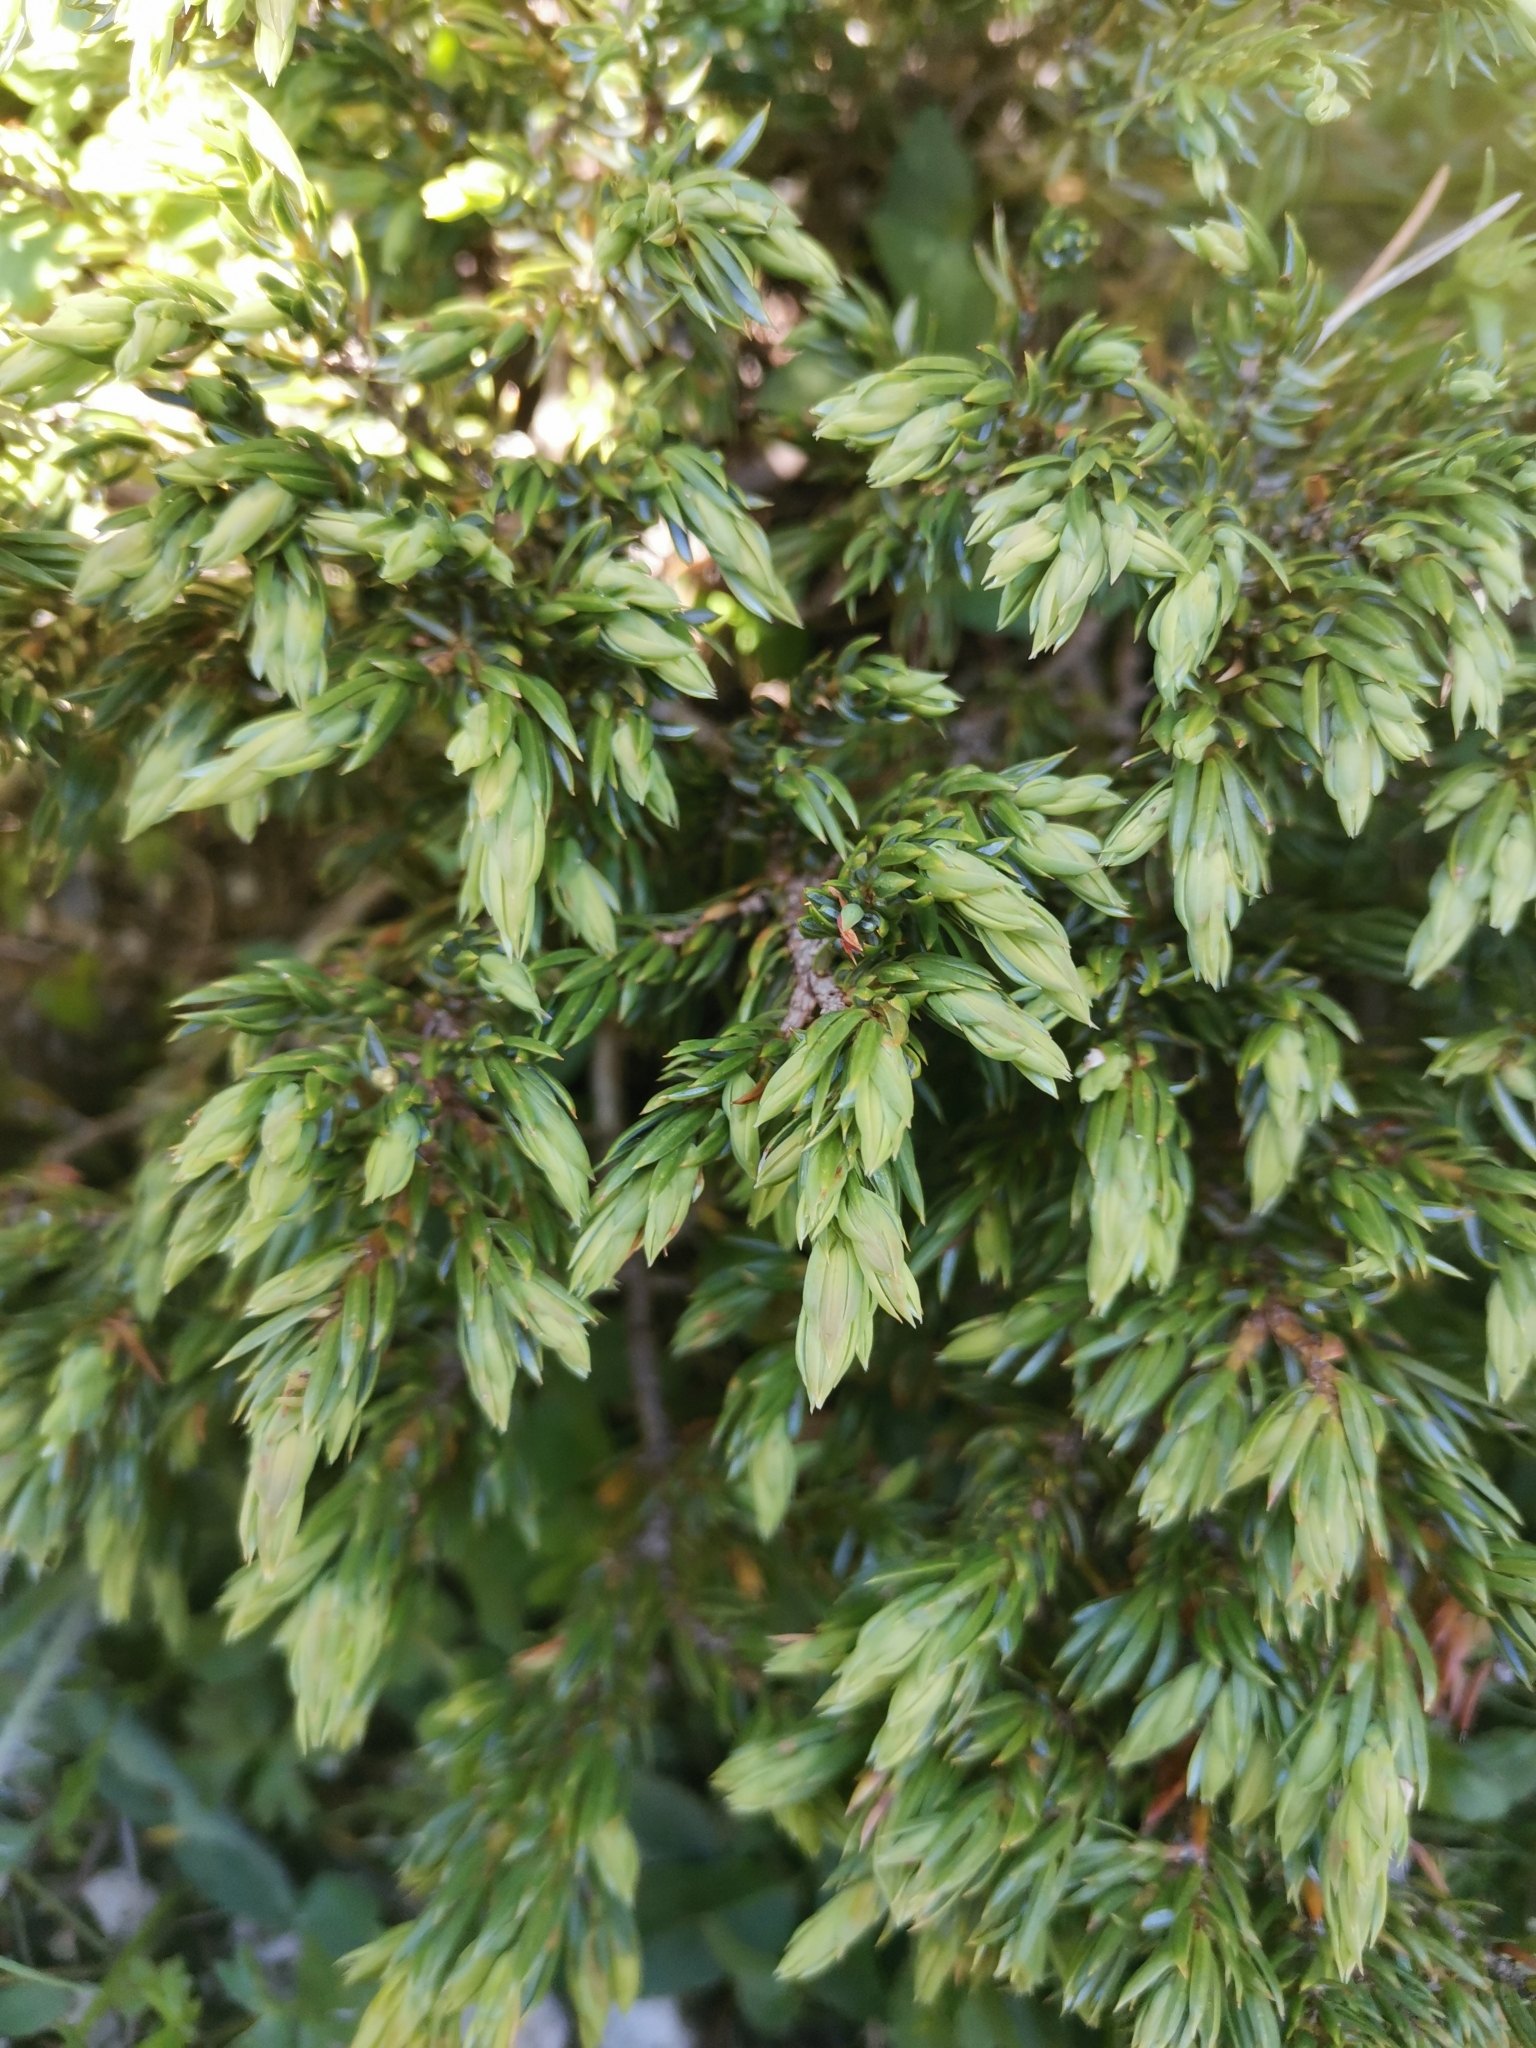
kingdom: Plantae
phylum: Tracheophyta
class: Pinopsida
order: Pinales
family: Cupressaceae
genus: Juniperus
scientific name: Juniperus communis
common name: Common juniper
